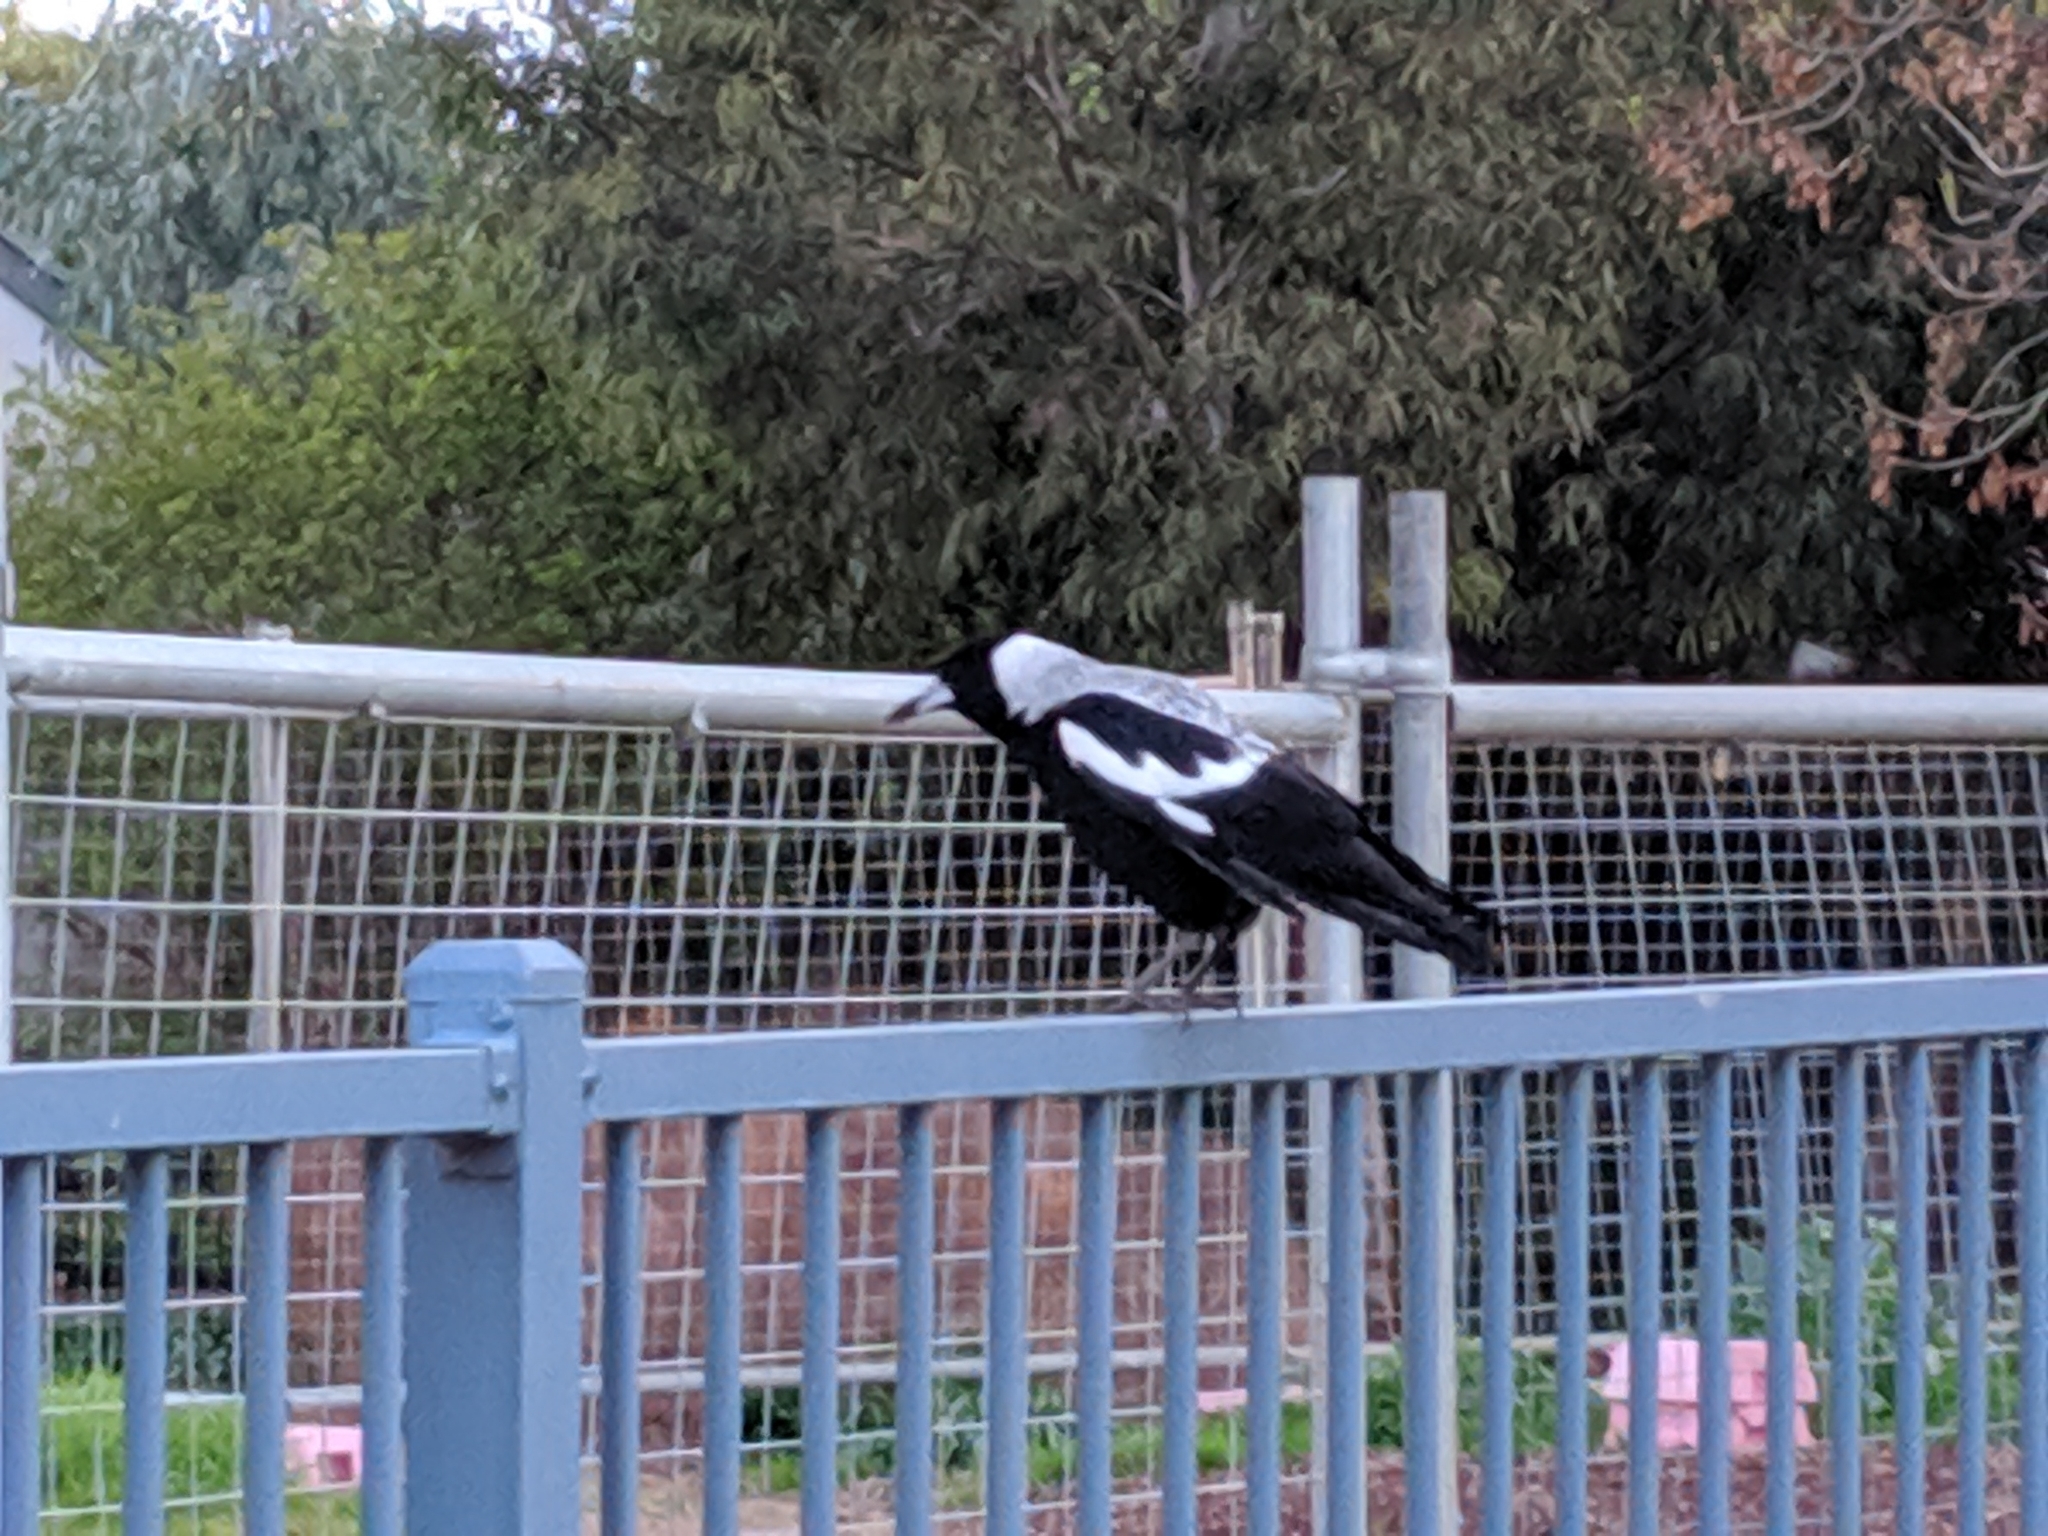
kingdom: Animalia
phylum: Chordata
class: Aves
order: Passeriformes
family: Cracticidae
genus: Gymnorhina
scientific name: Gymnorhina tibicen
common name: Australian magpie
